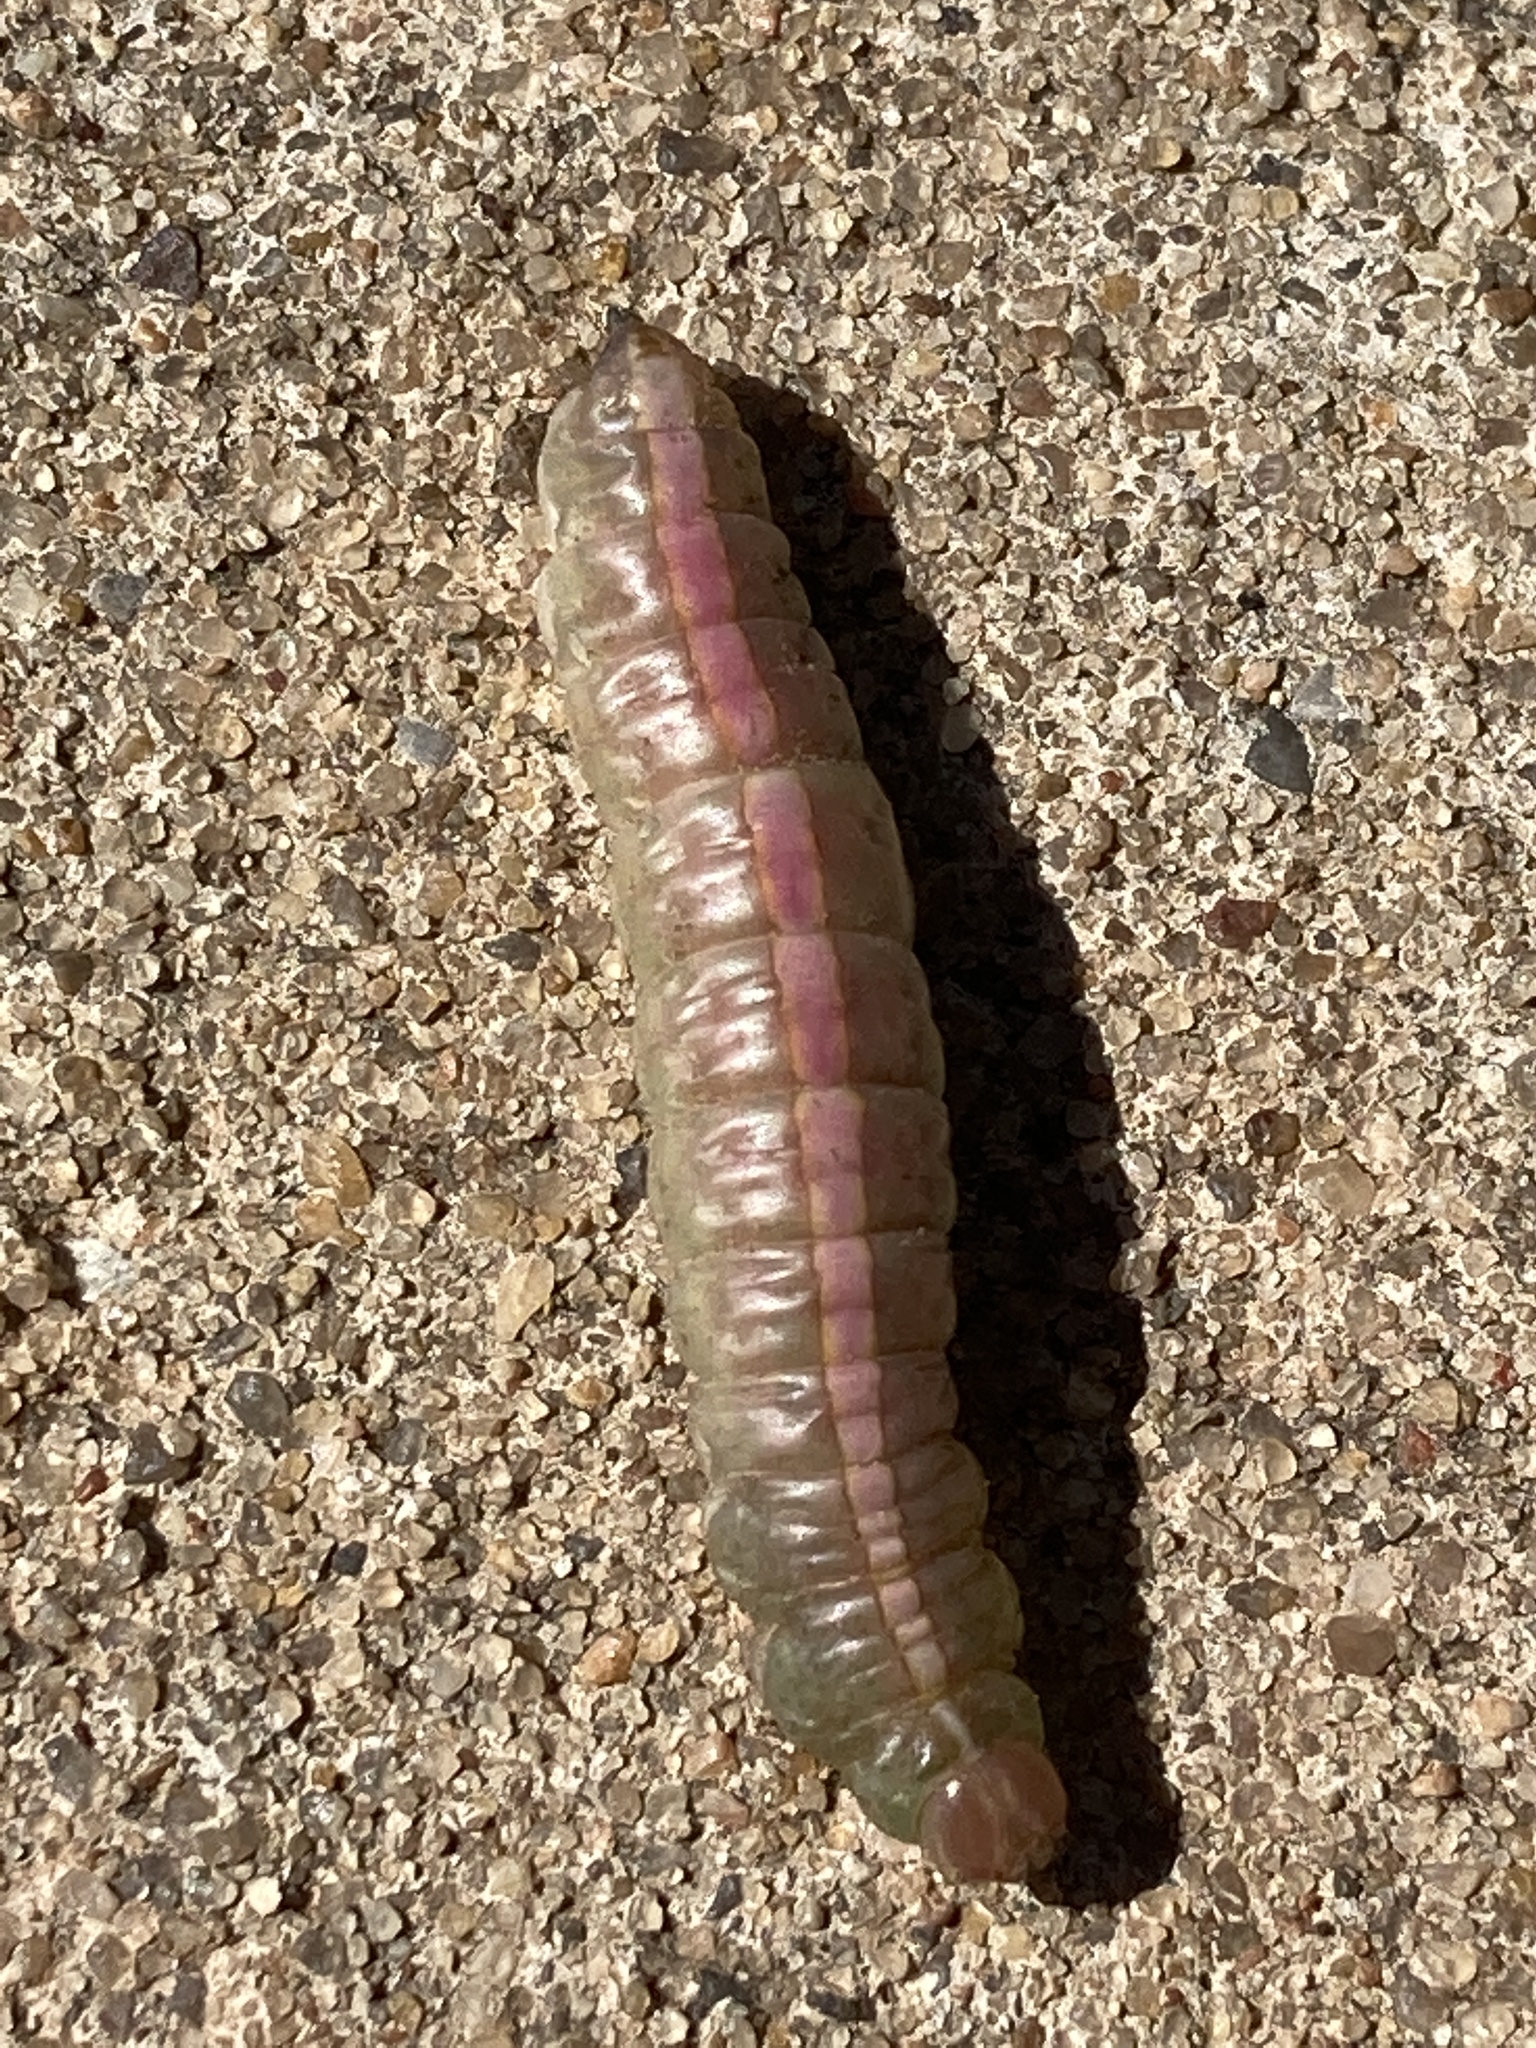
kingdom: Animalia
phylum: Arthropoda
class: Insecta
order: Lepidoptera
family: Notodontidae
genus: Misogada
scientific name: Misogada unicolor
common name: Drab prominent
